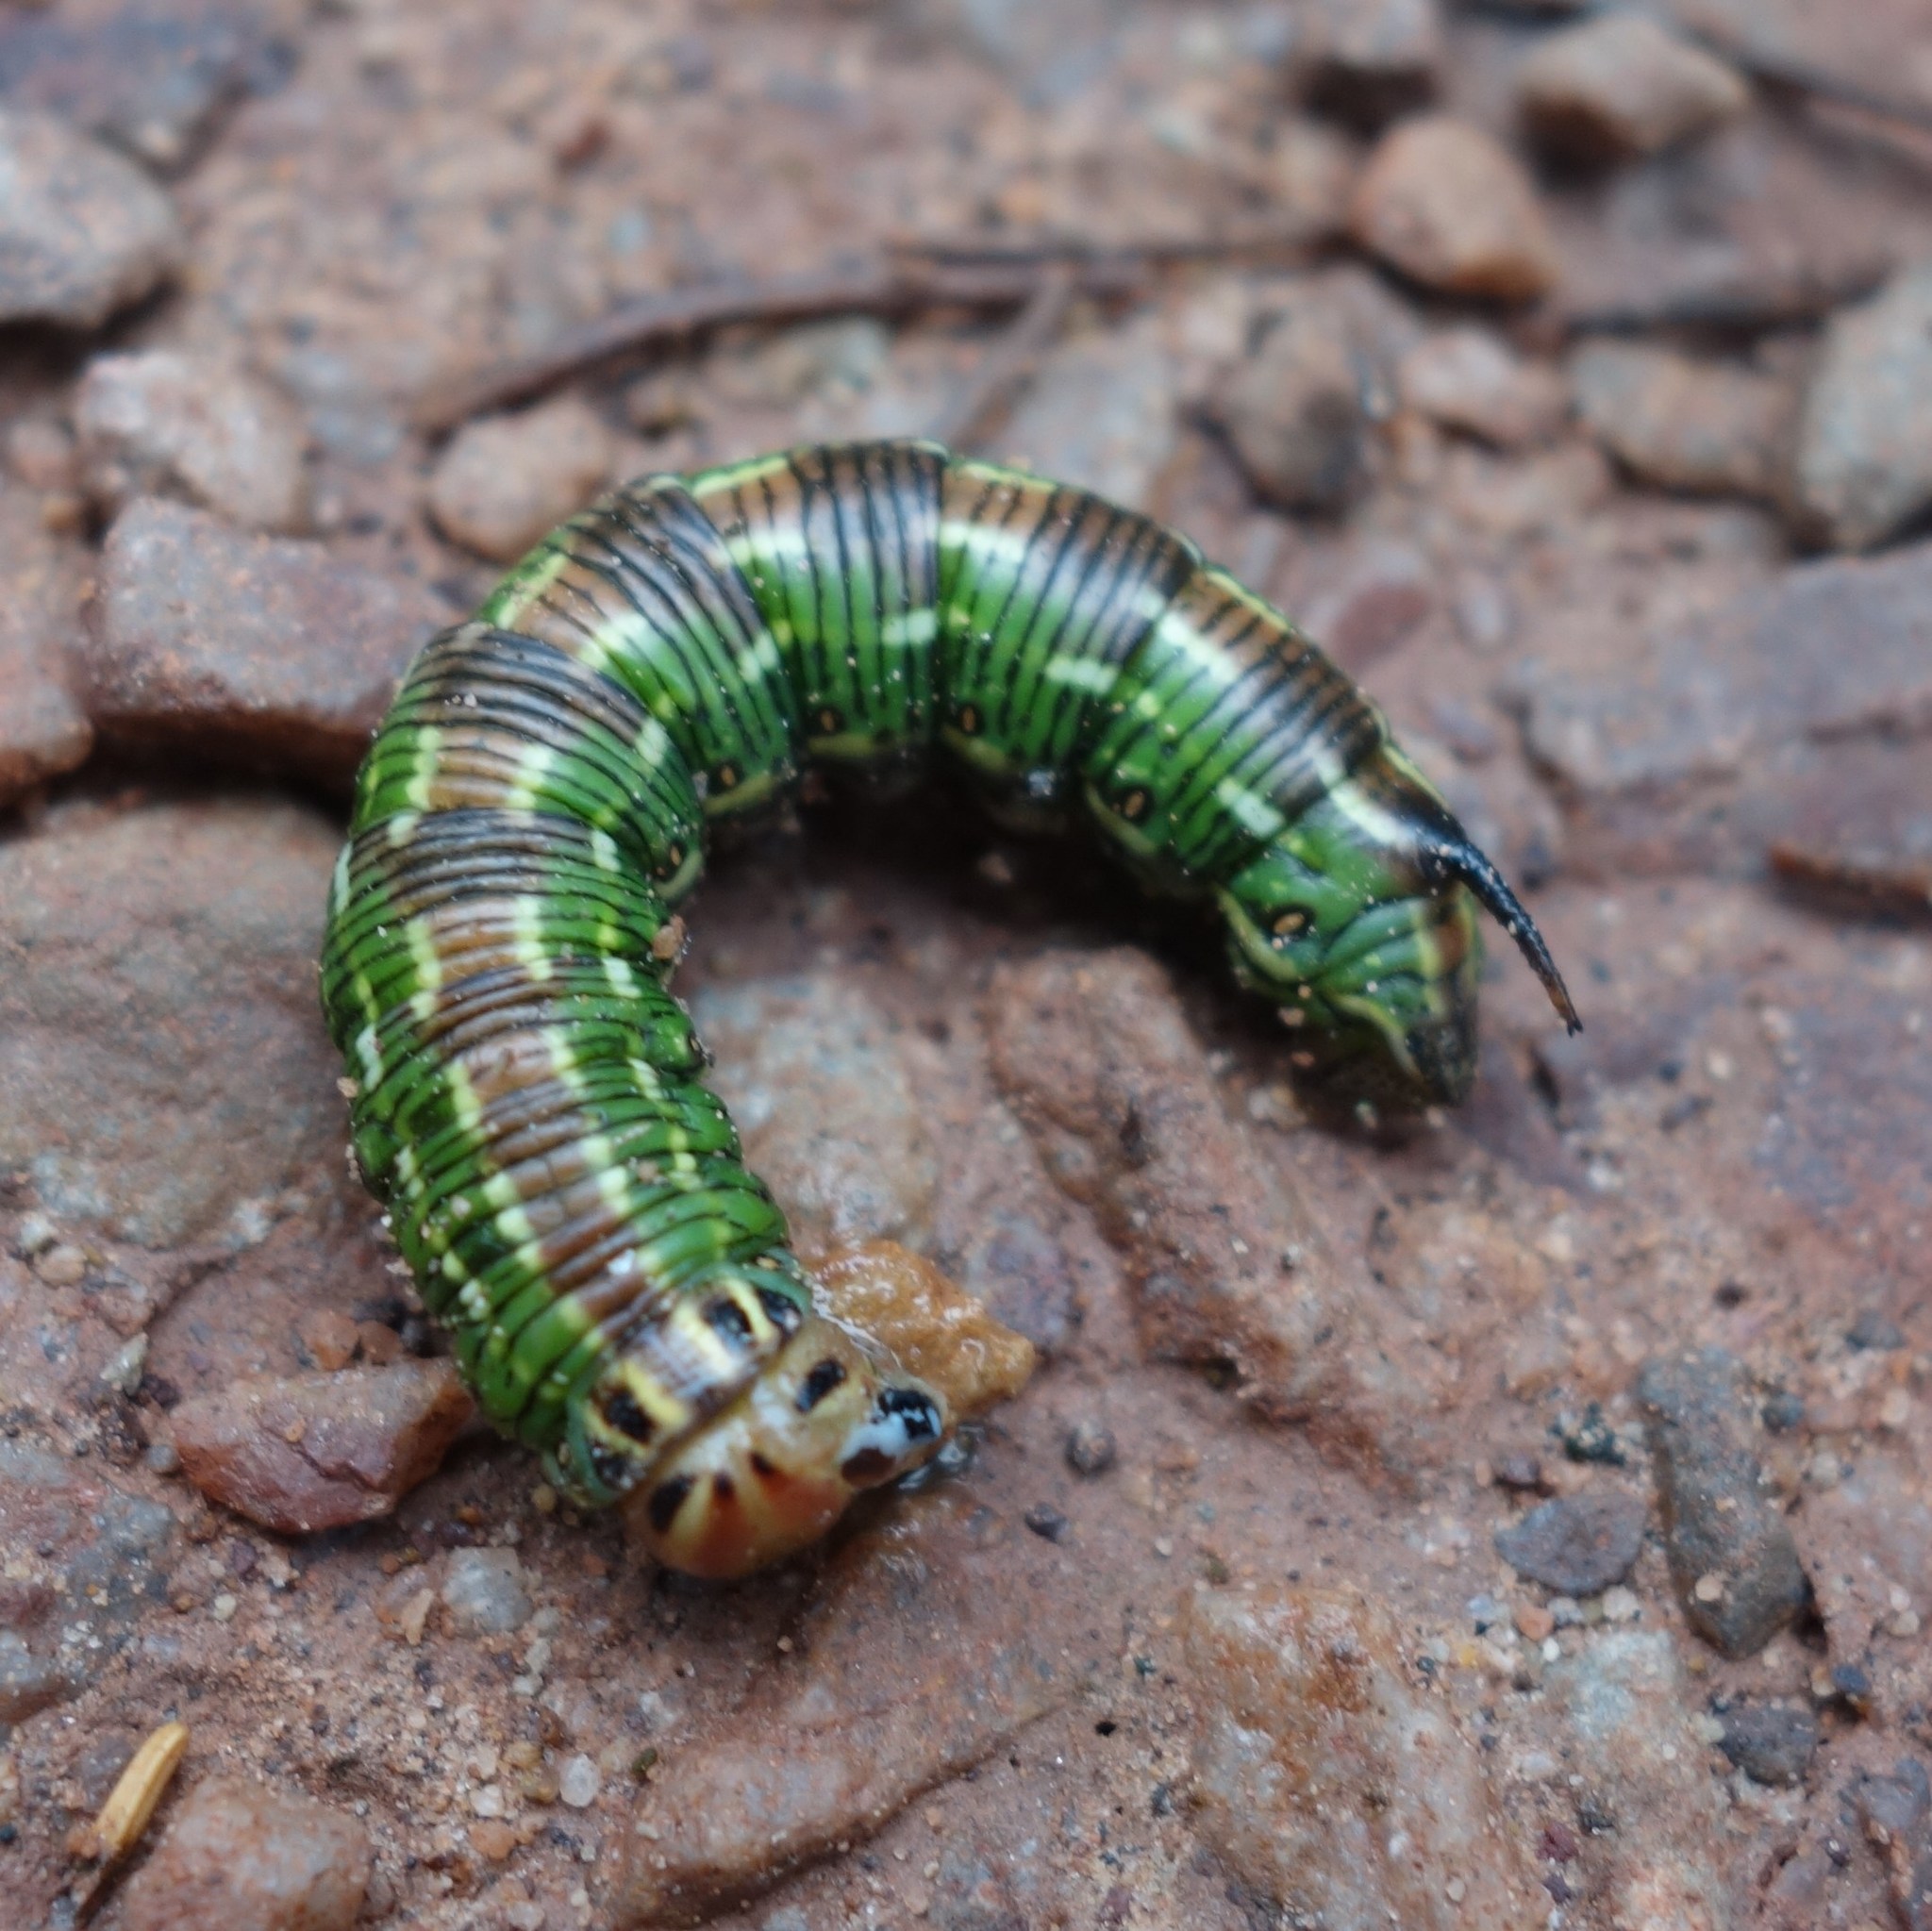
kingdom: Animalia
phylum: Arthropoda
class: Insecta
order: Lepidoptera
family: Sphingidae
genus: Sphinx
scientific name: Sphinx pinastri
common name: Pine hawk-moth
